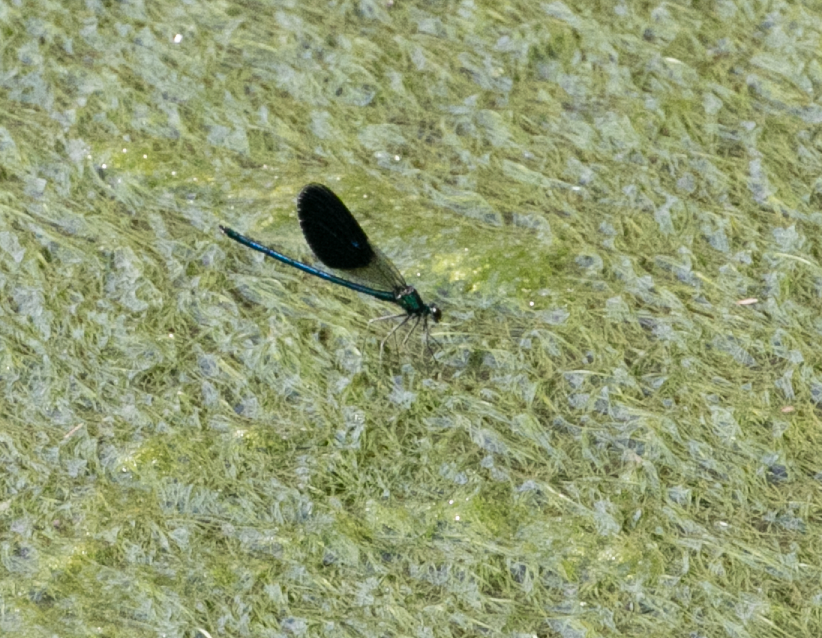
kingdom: Animalia
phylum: Arthropoda
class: Insecta
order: Odonata
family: Calopterygidae
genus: Calopteryx
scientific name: Calopteryx splendens
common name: Banded demoiselle
